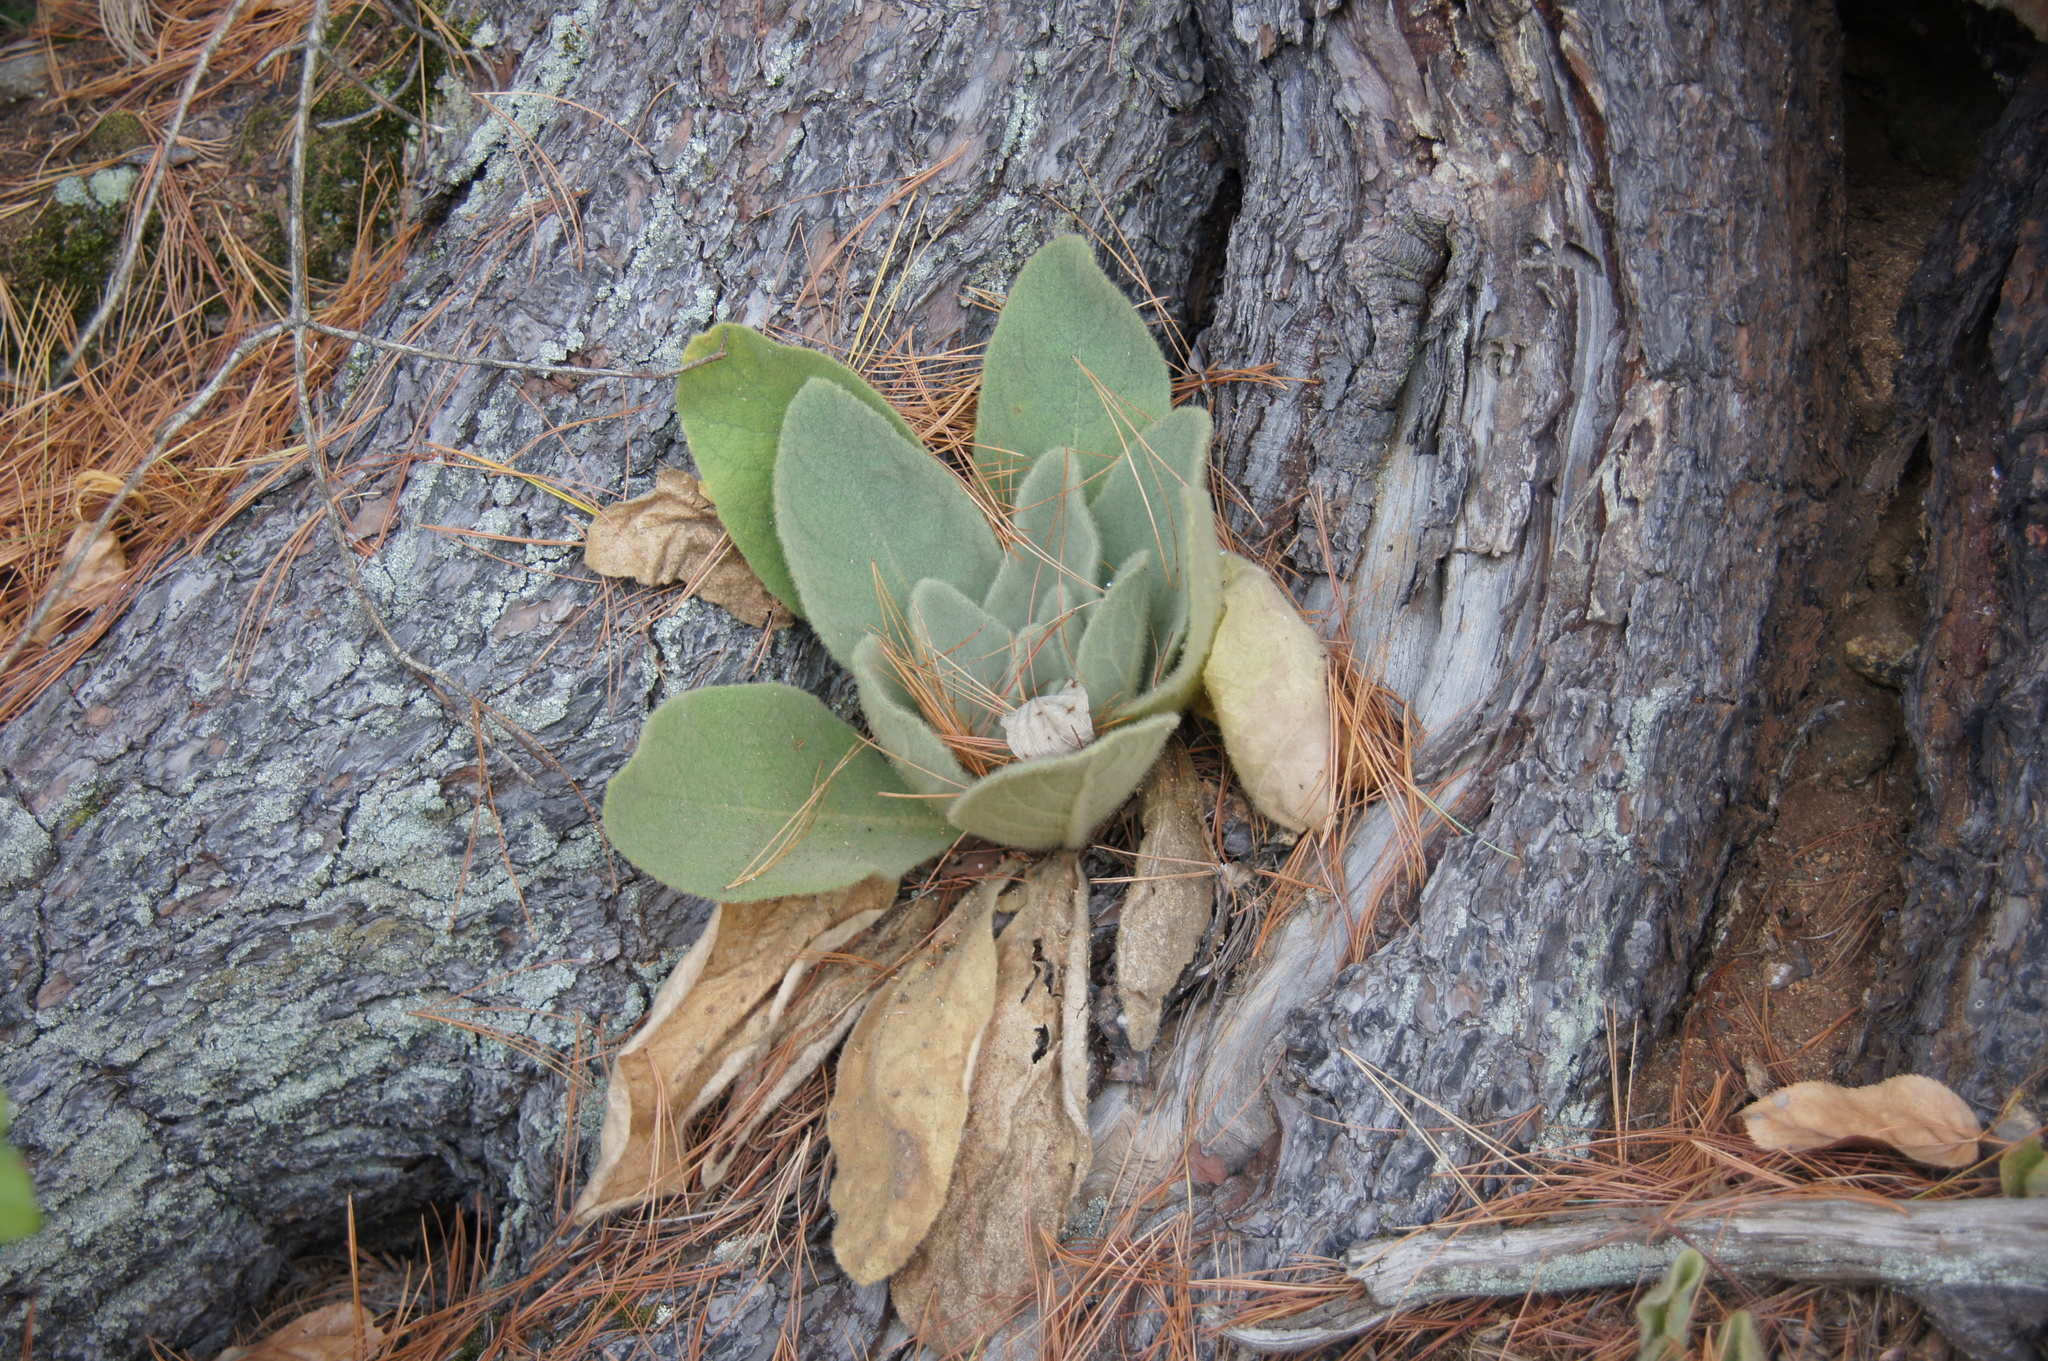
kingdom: Plantae
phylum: Tracheophyta
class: Magnoliopsida
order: Lamiales
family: Scrophulariaceae
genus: Verbascum
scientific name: Verbascum thapsus
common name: Common mullein
